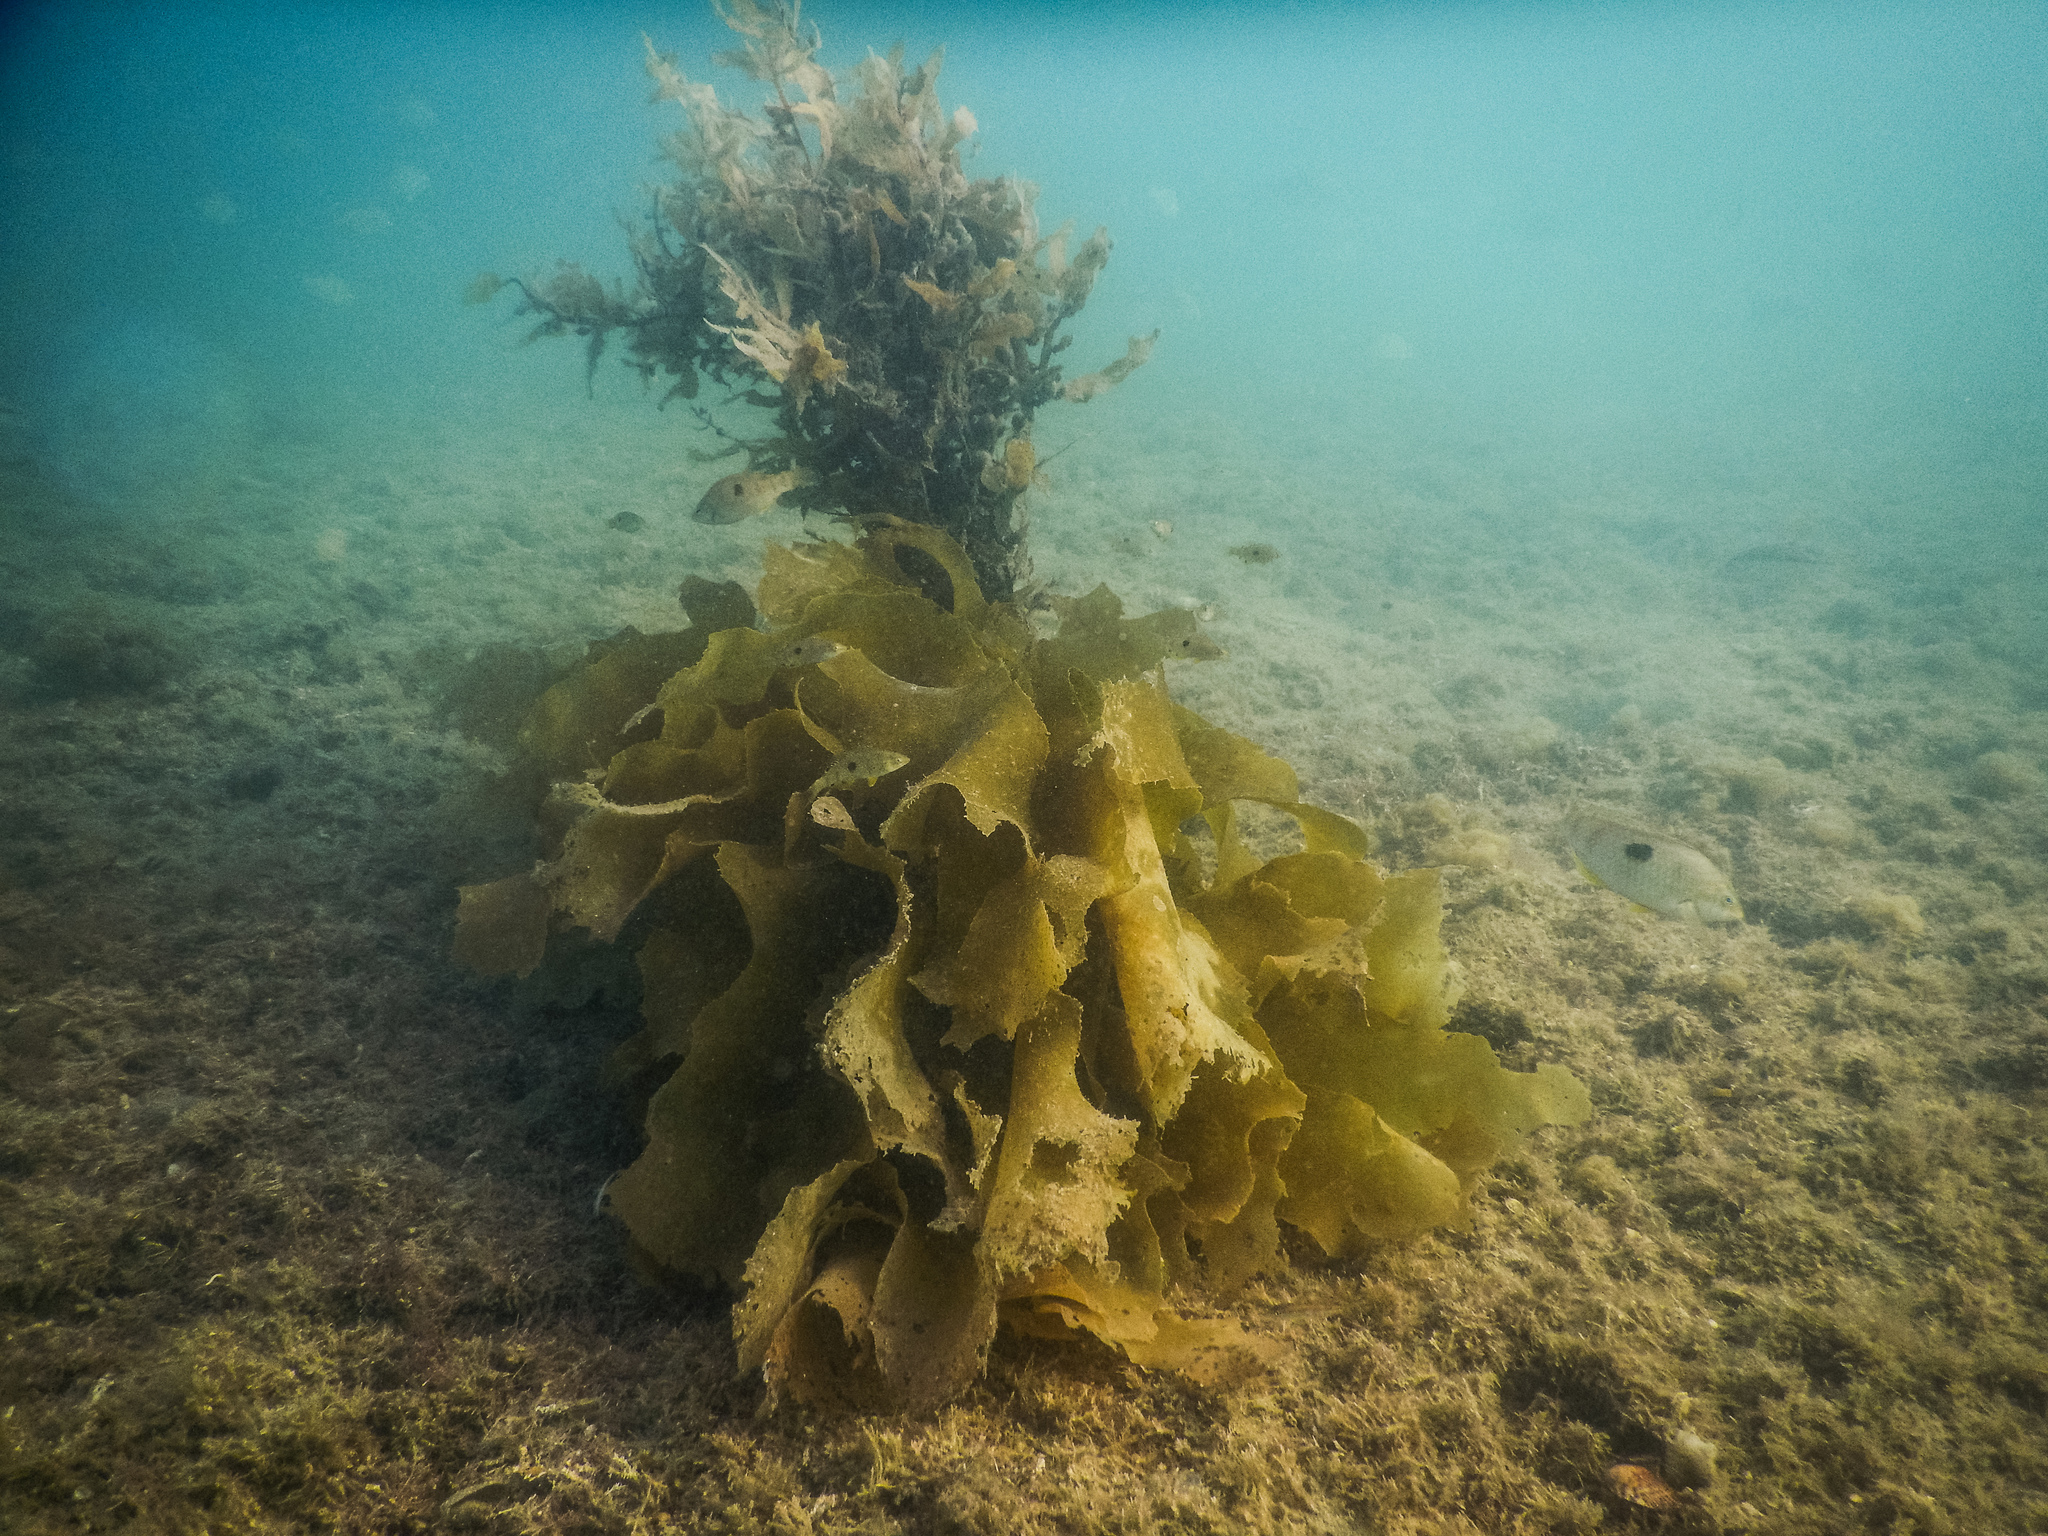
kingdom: Animalia
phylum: Chordata
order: Perciformes
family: Labridae
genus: Notolabrus
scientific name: Notolabrus celidotus
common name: Spotty
